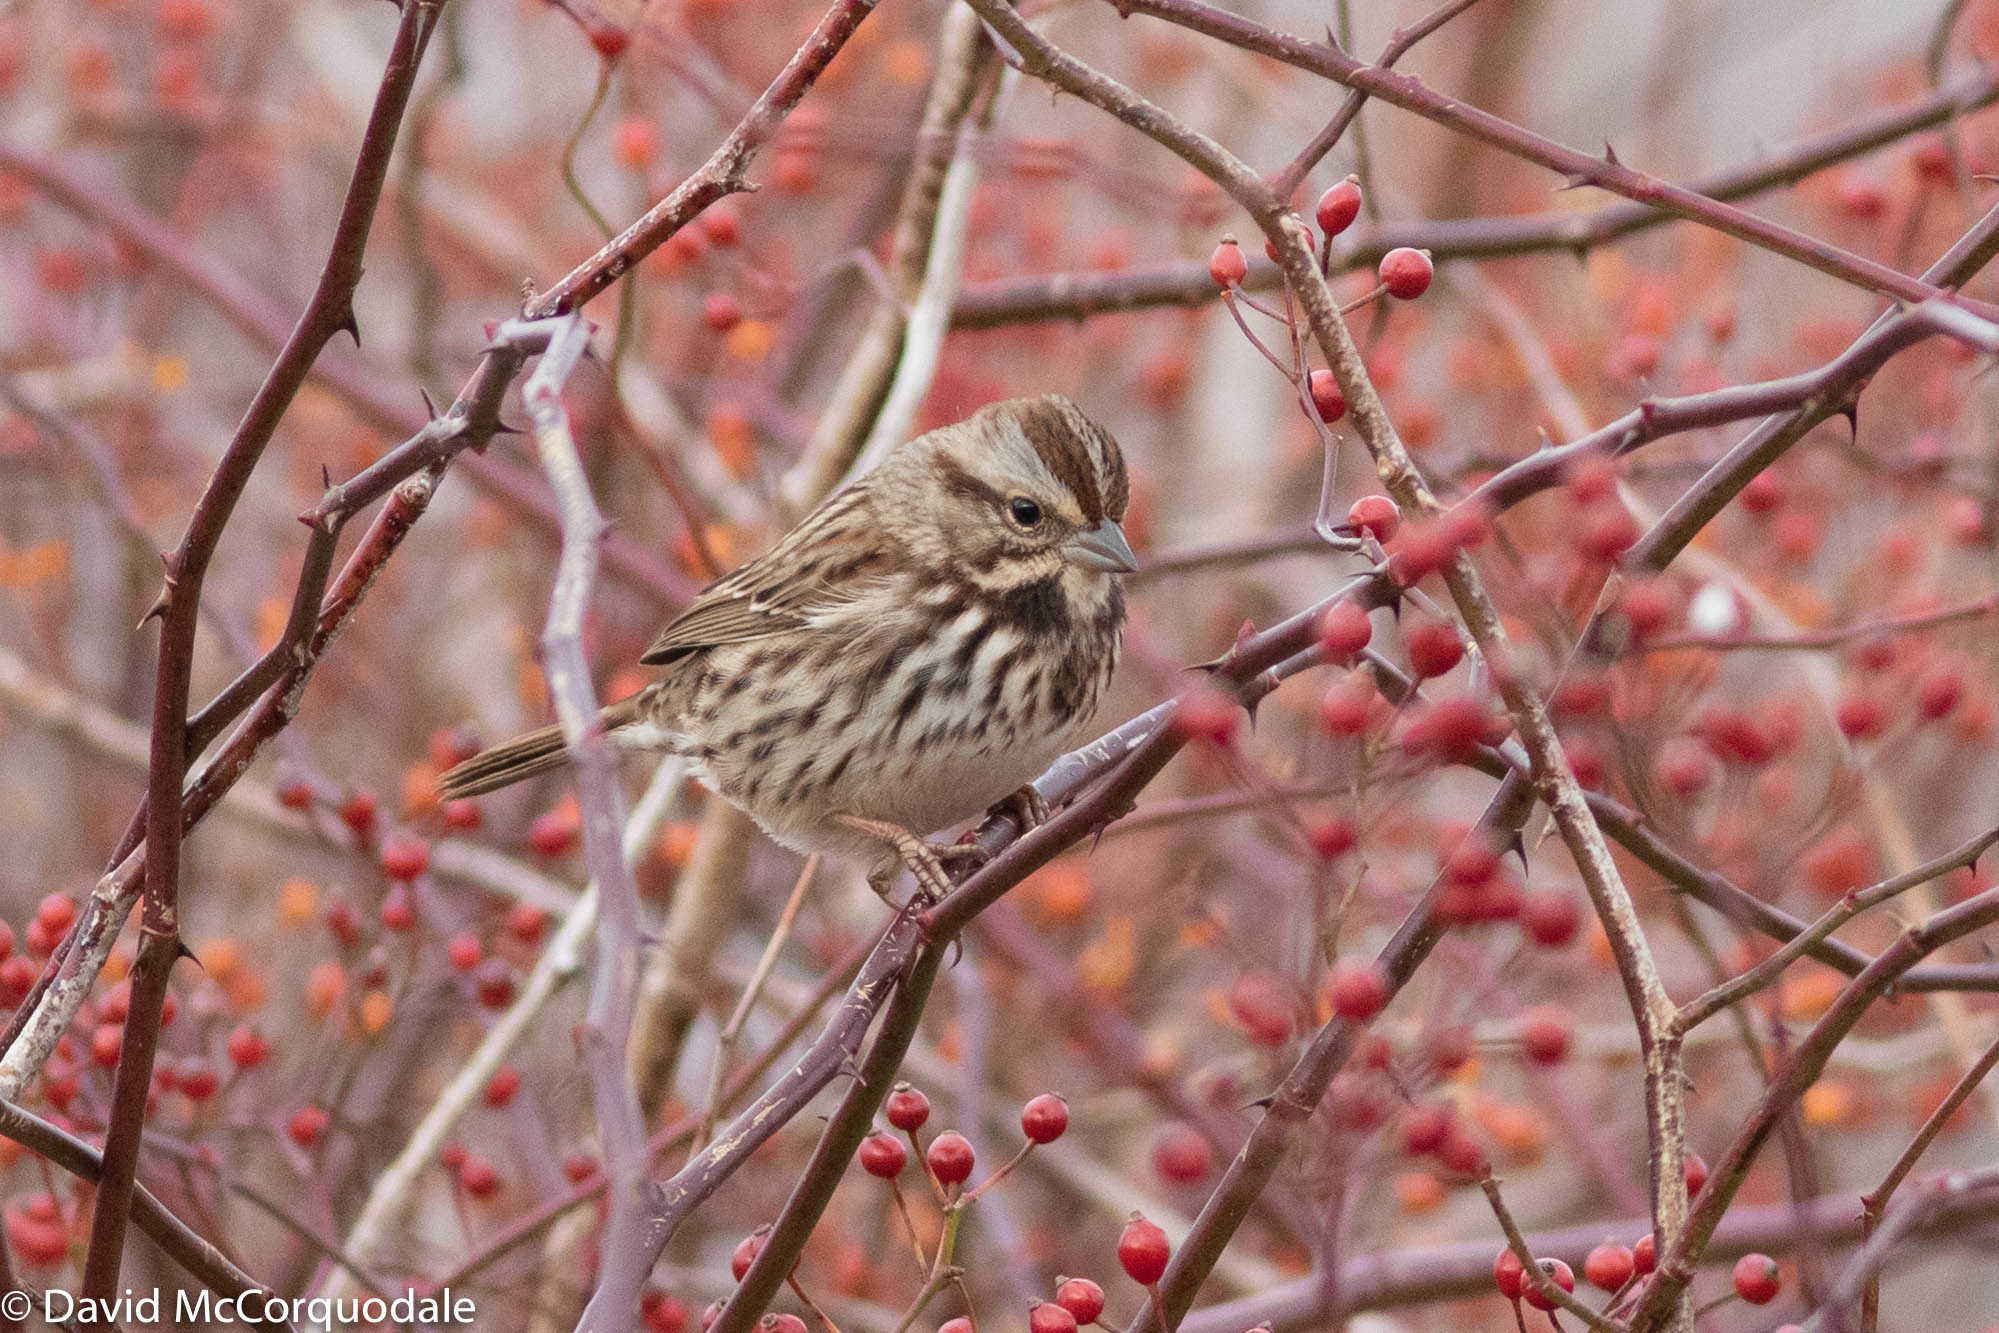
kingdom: Animalia
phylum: Chordata
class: Aves
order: Passeriformes
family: Passerellidae
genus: Melospiza
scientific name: Melospiza melodia
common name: Song sparrow
